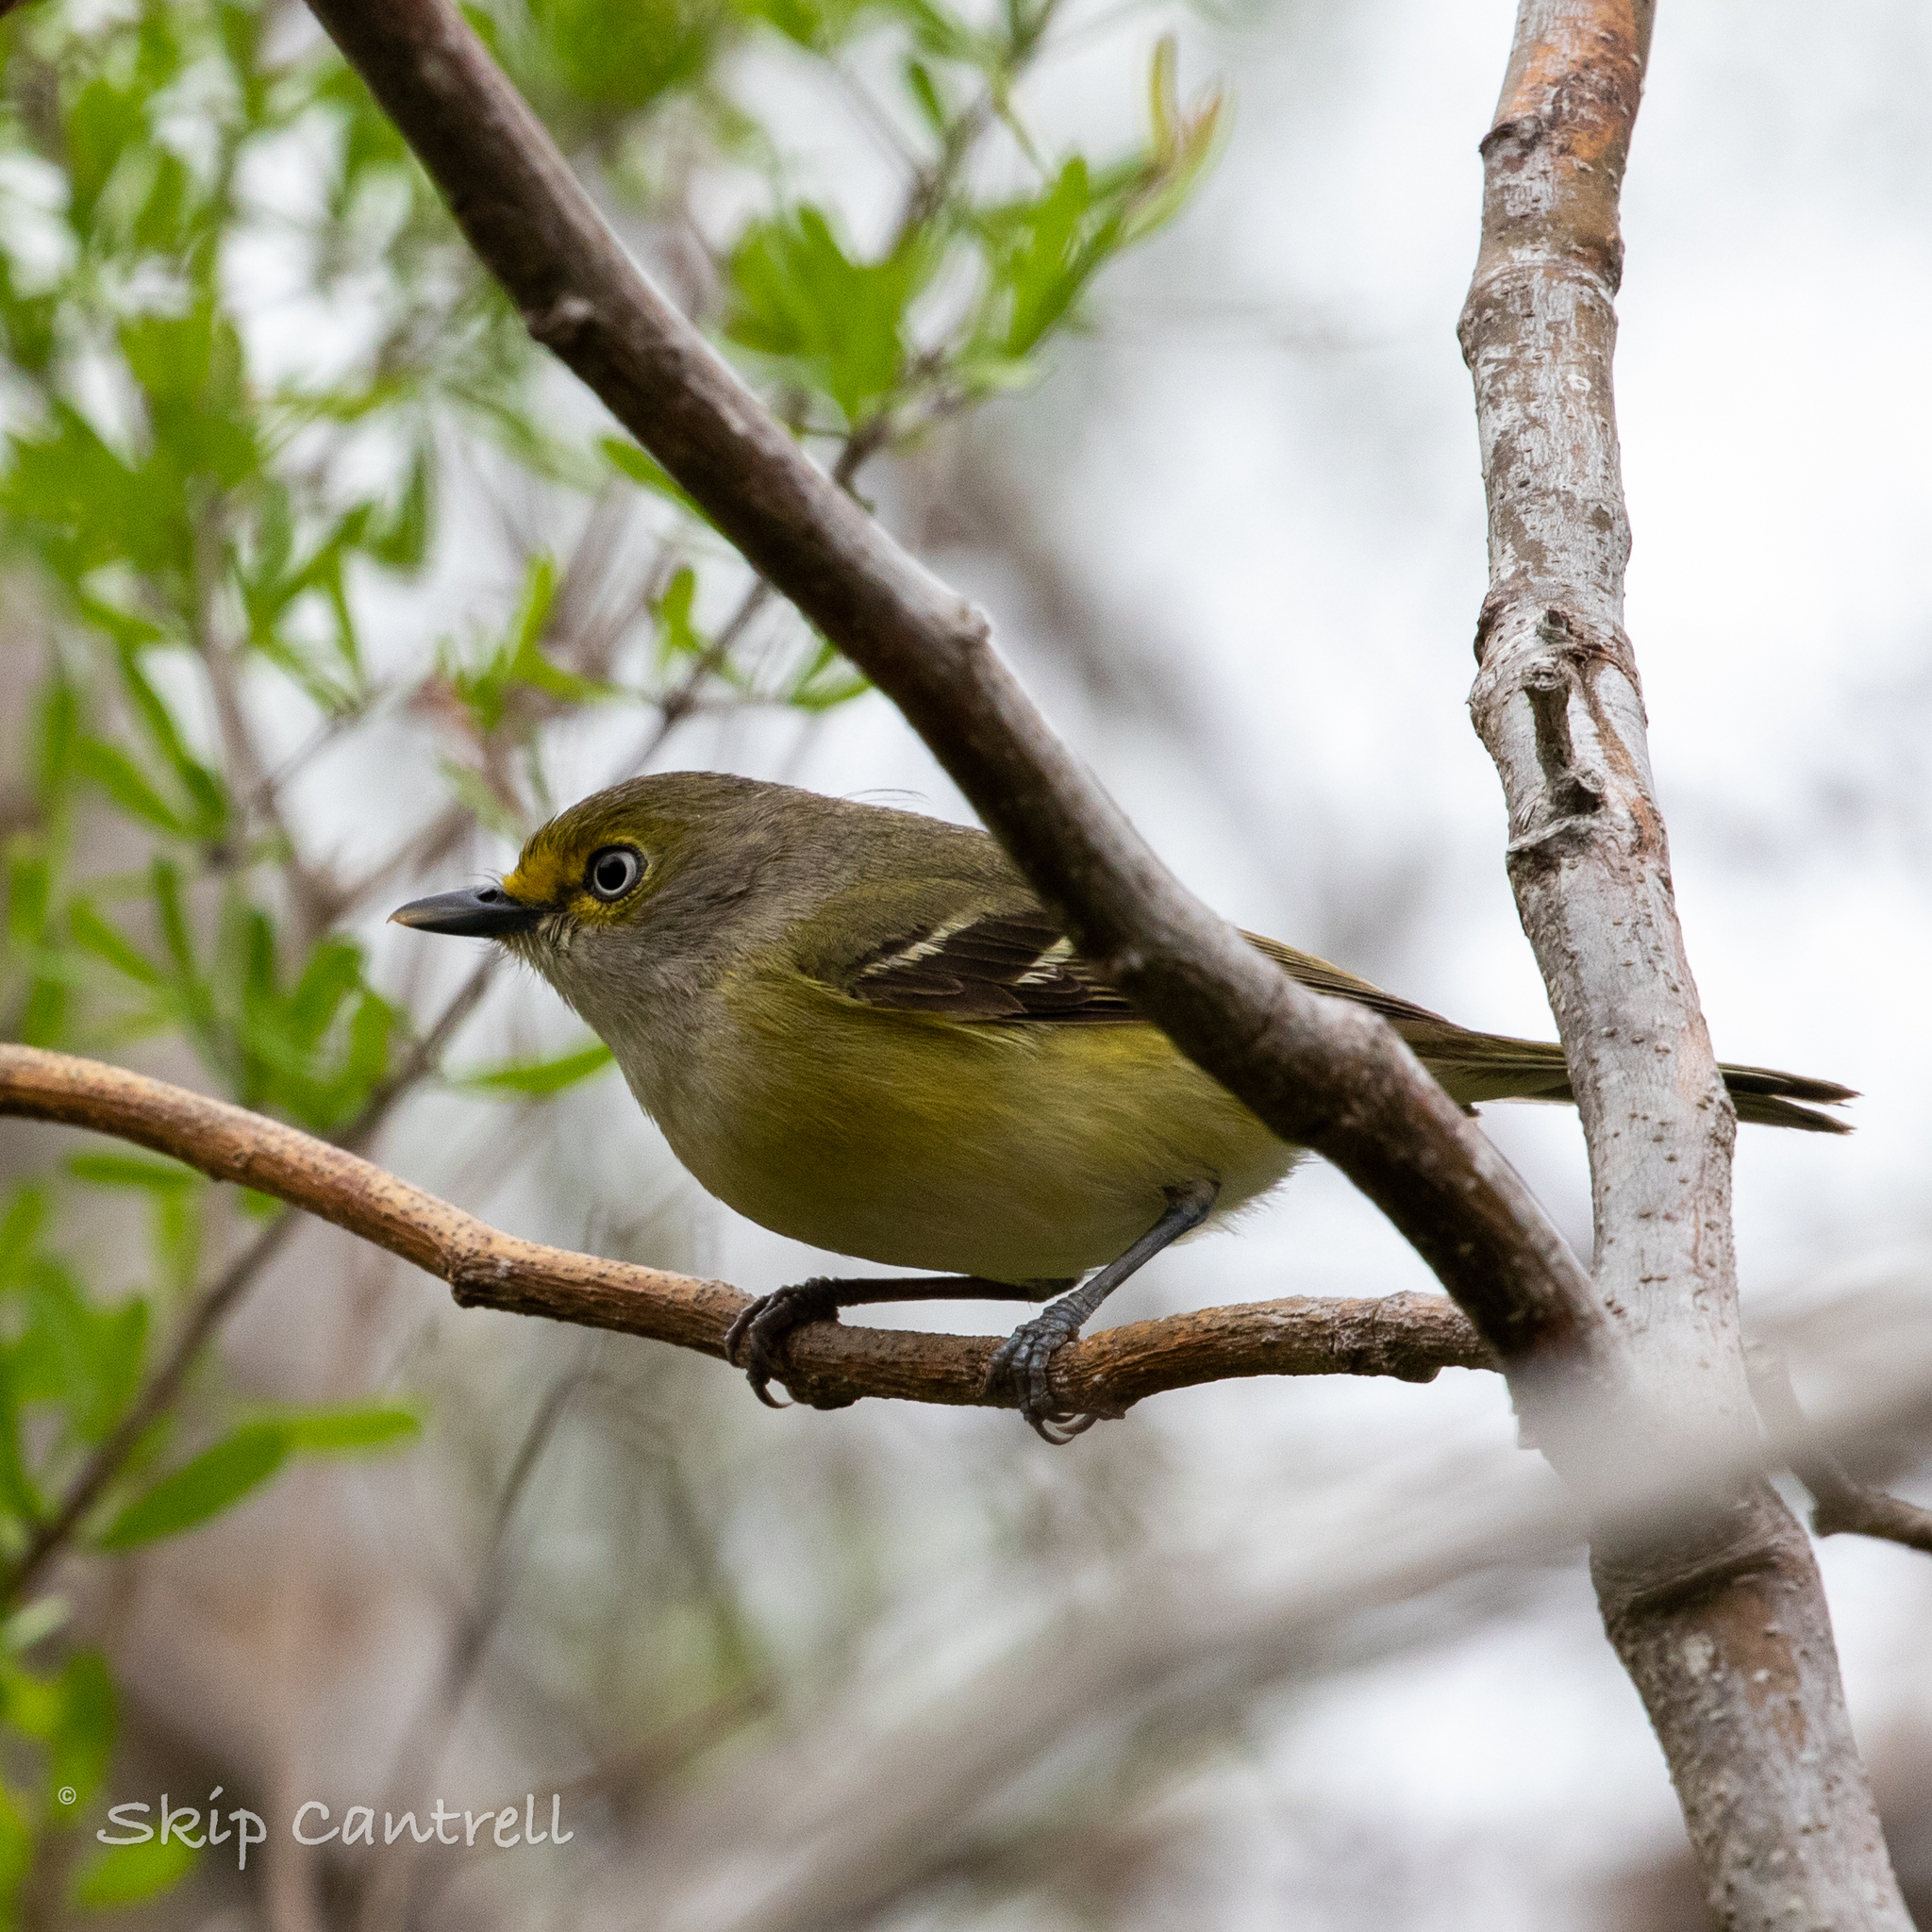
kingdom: Animalia
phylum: Chordata
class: Aves
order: Passeriformes
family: Vireonidae
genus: Vireo
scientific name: Vireo griseus
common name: White-eyed vireo
